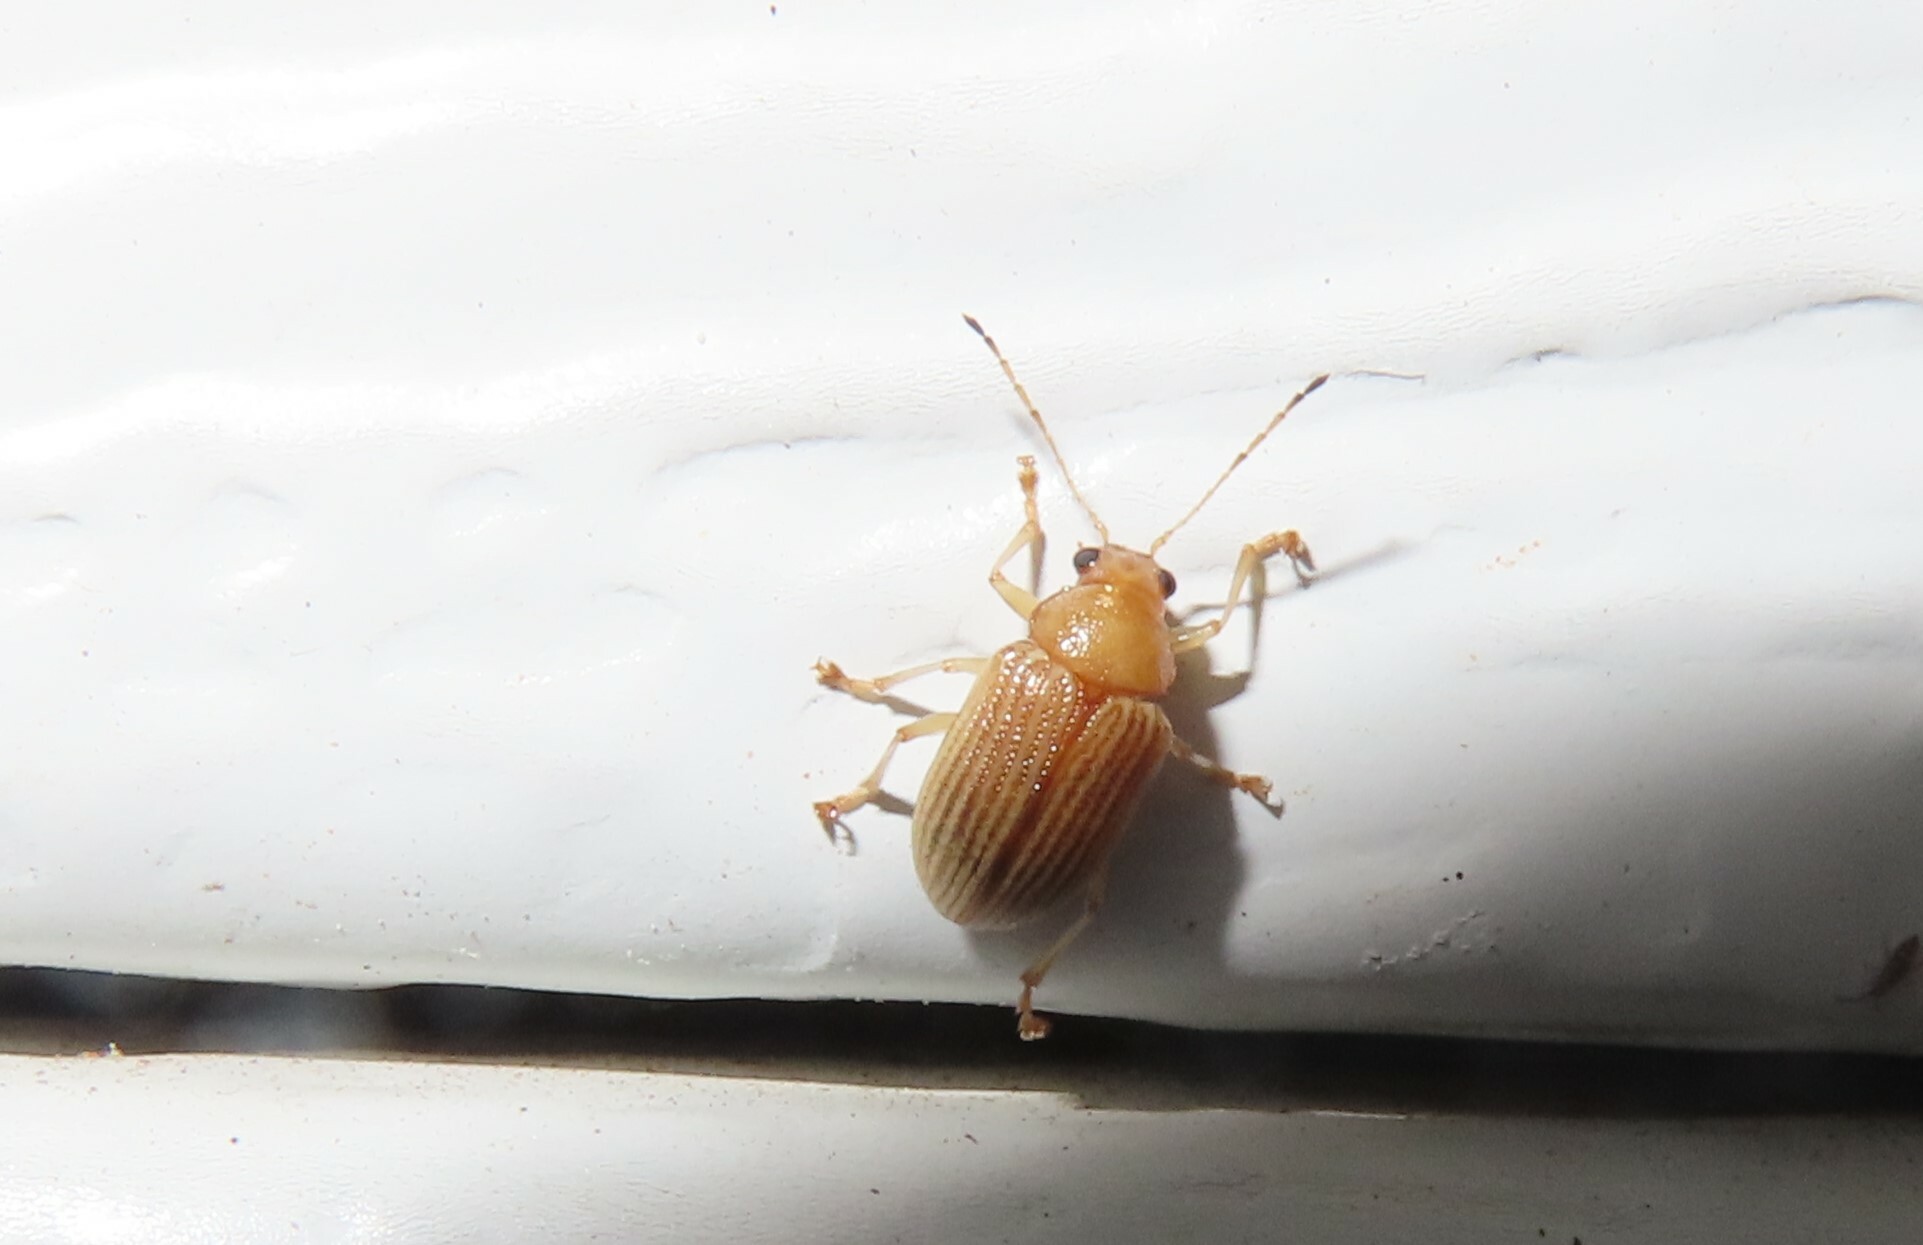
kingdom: Animalia
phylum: Arthropoda
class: Insecta
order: Coleoptera
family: Chrysomelidae
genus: Colaspis
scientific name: Colaspis brunnea
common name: Grape colaspis
